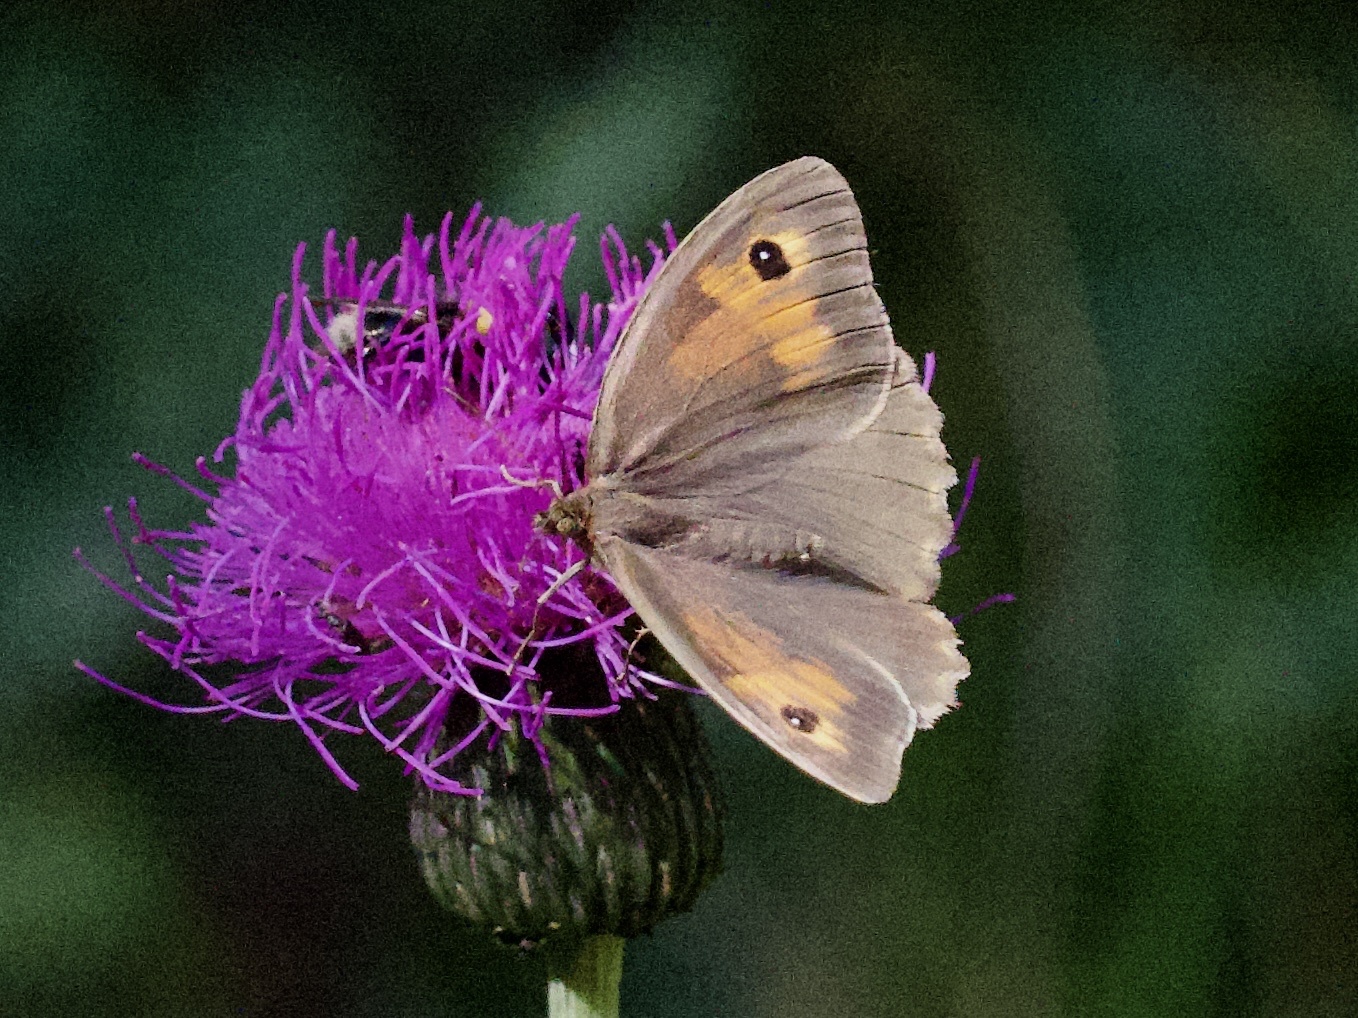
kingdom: Animalia
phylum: Arthropoda
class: Insecta
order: Lepidoptera
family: Nymphalidae
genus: Maniola
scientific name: Maniola jurtina
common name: Meadow brown
